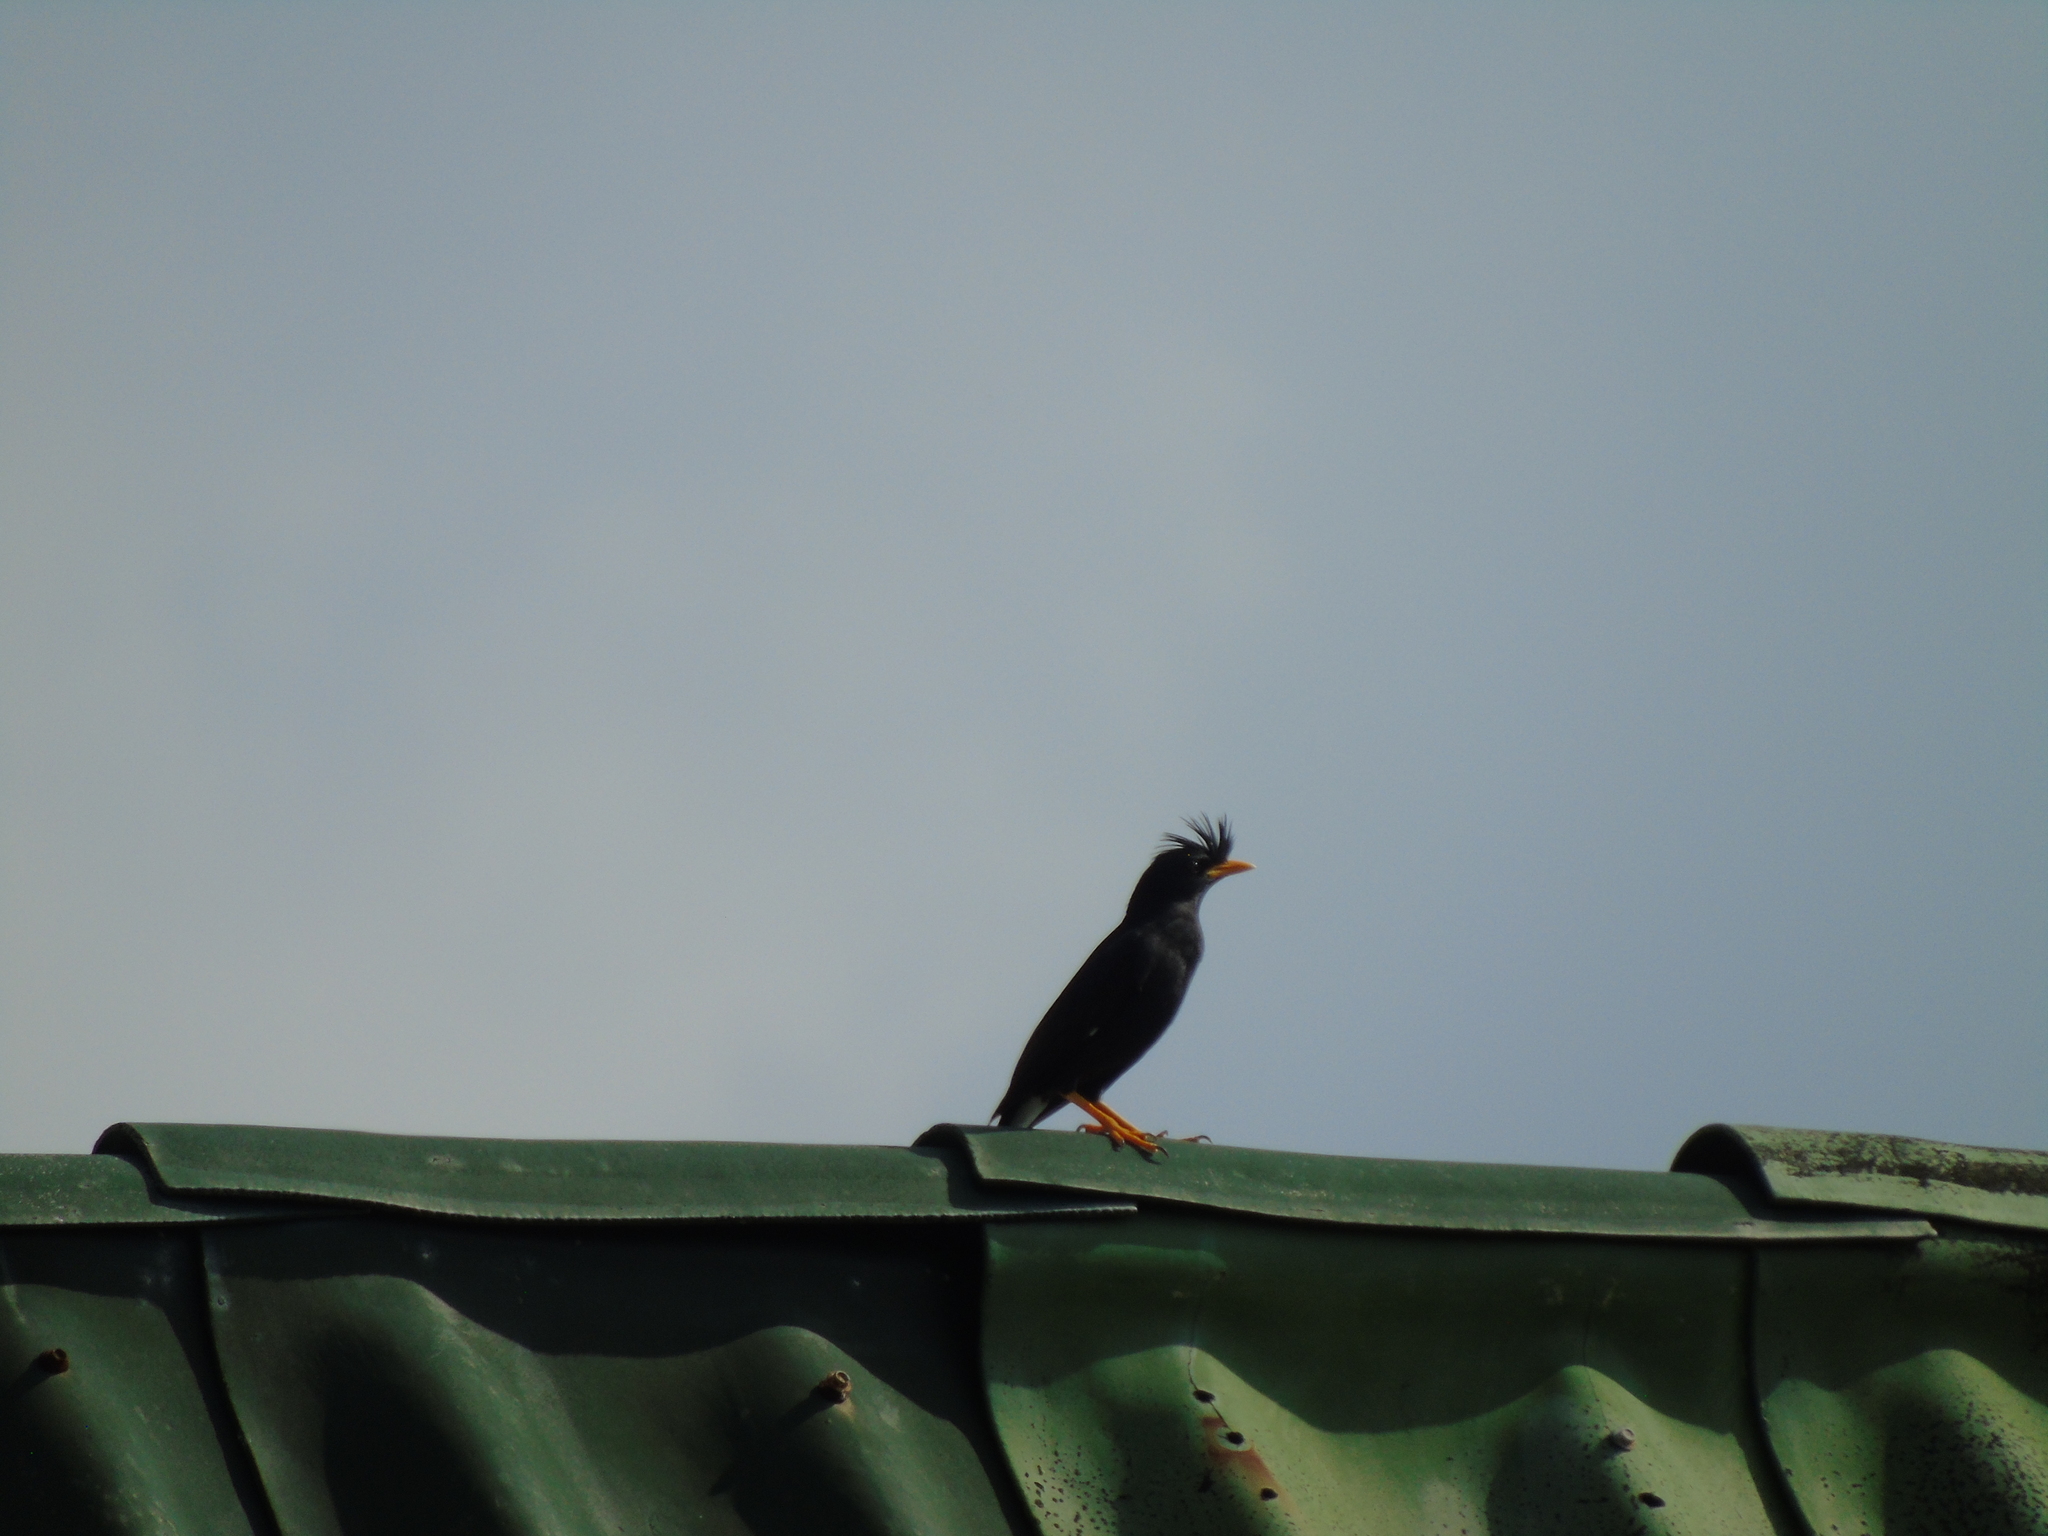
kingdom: Animalia
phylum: Chordata
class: Aves
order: Passeriformes
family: Sturnidae
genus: Acridotheres
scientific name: Acridotheres grandis
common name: Great myna
